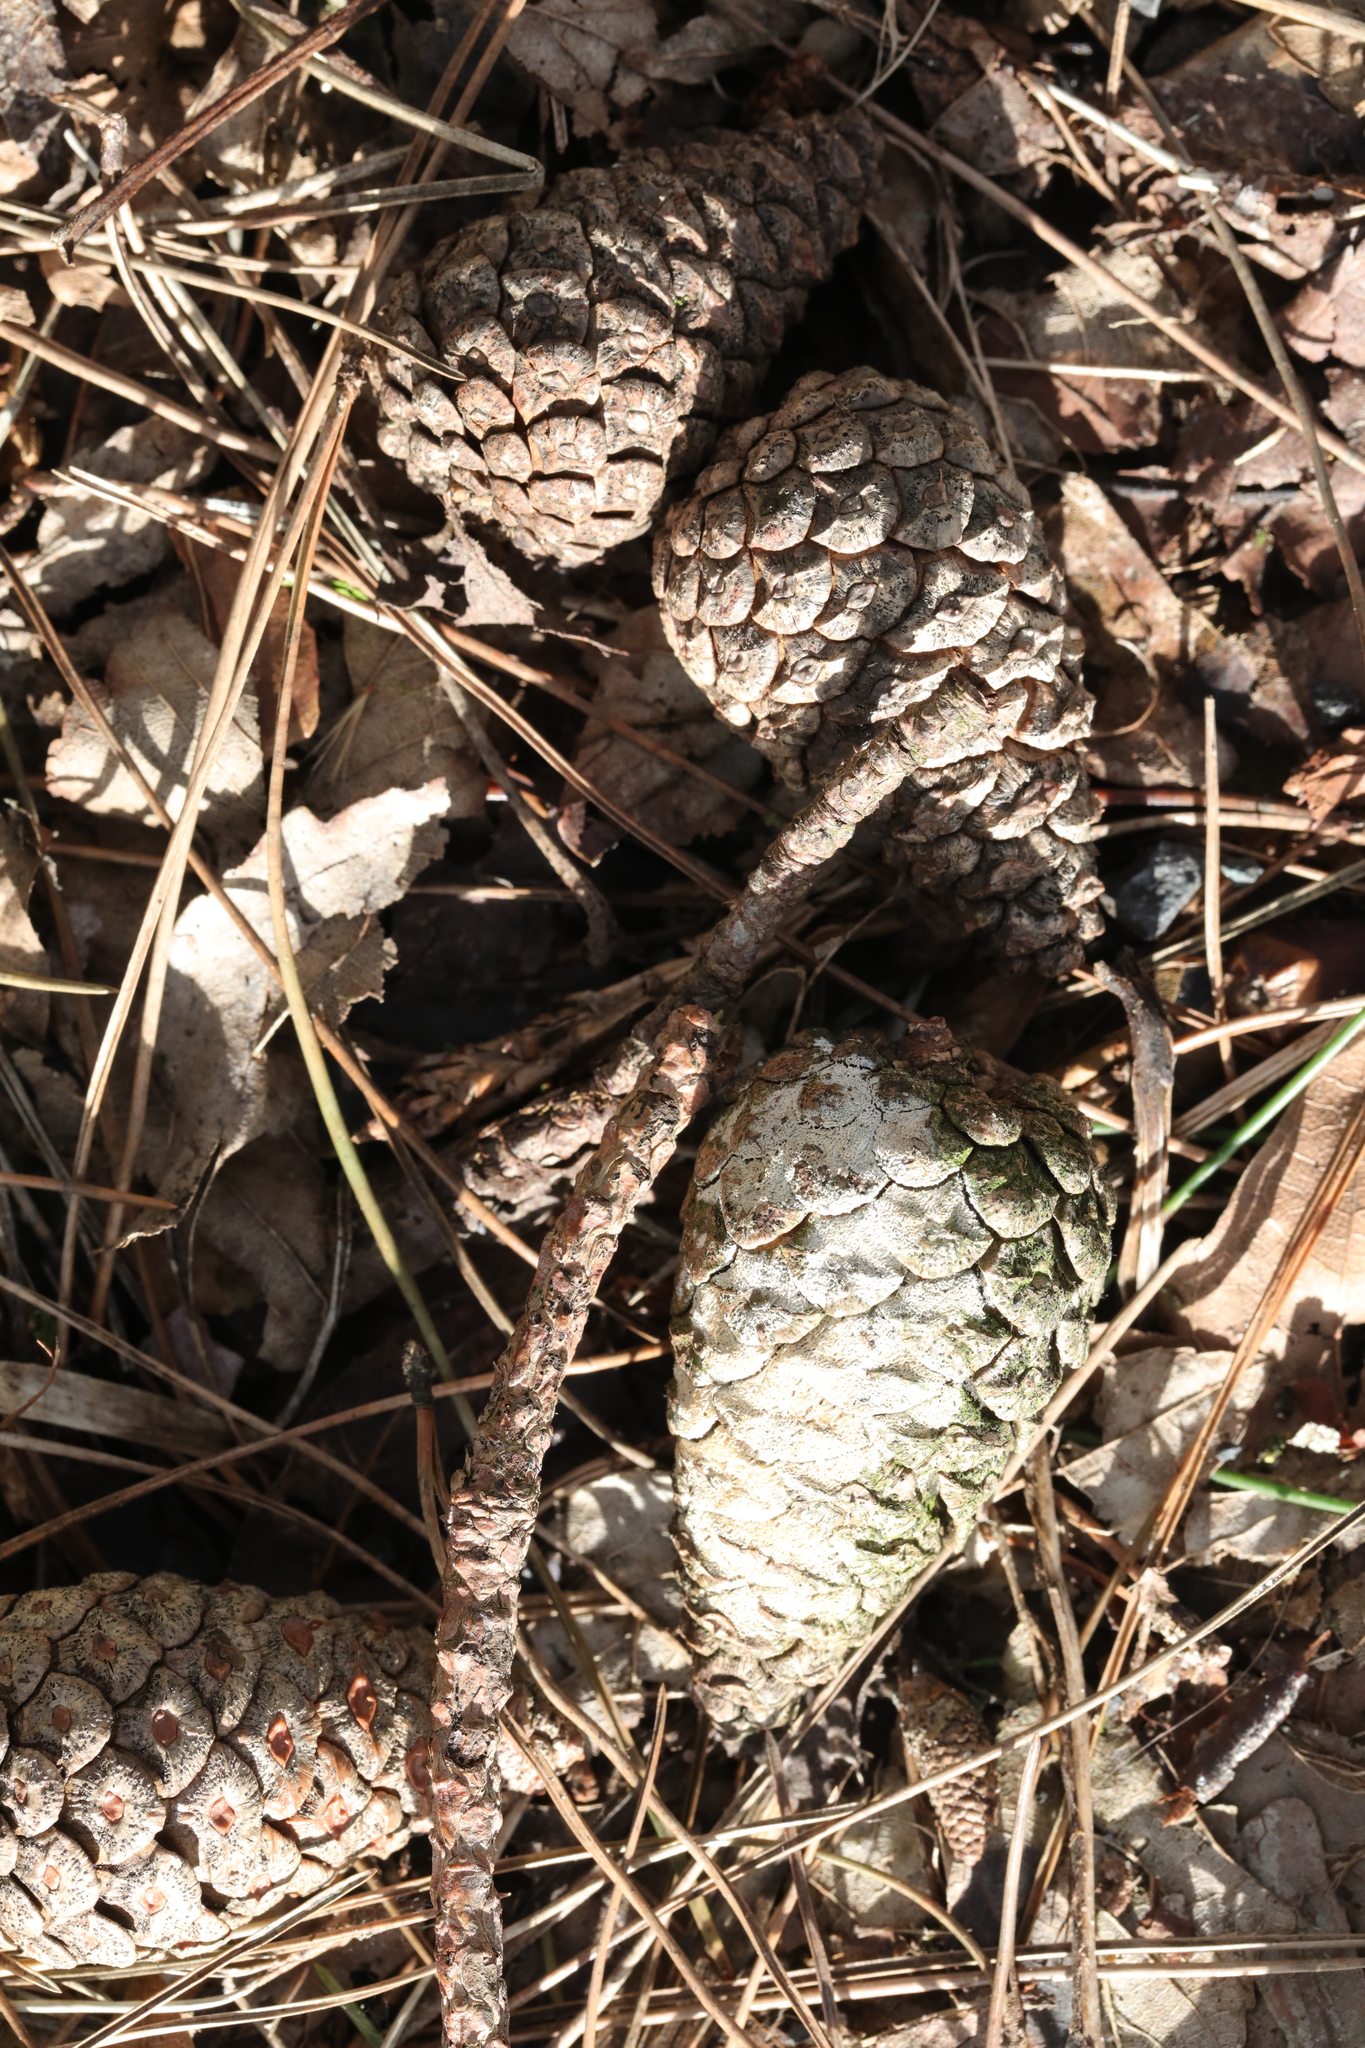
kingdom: Plantae
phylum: Tracheophyta
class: Pinopsida
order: Pinales
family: Pinaceae
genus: Pinus
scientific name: Pinus sylvestris
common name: Scots pine
